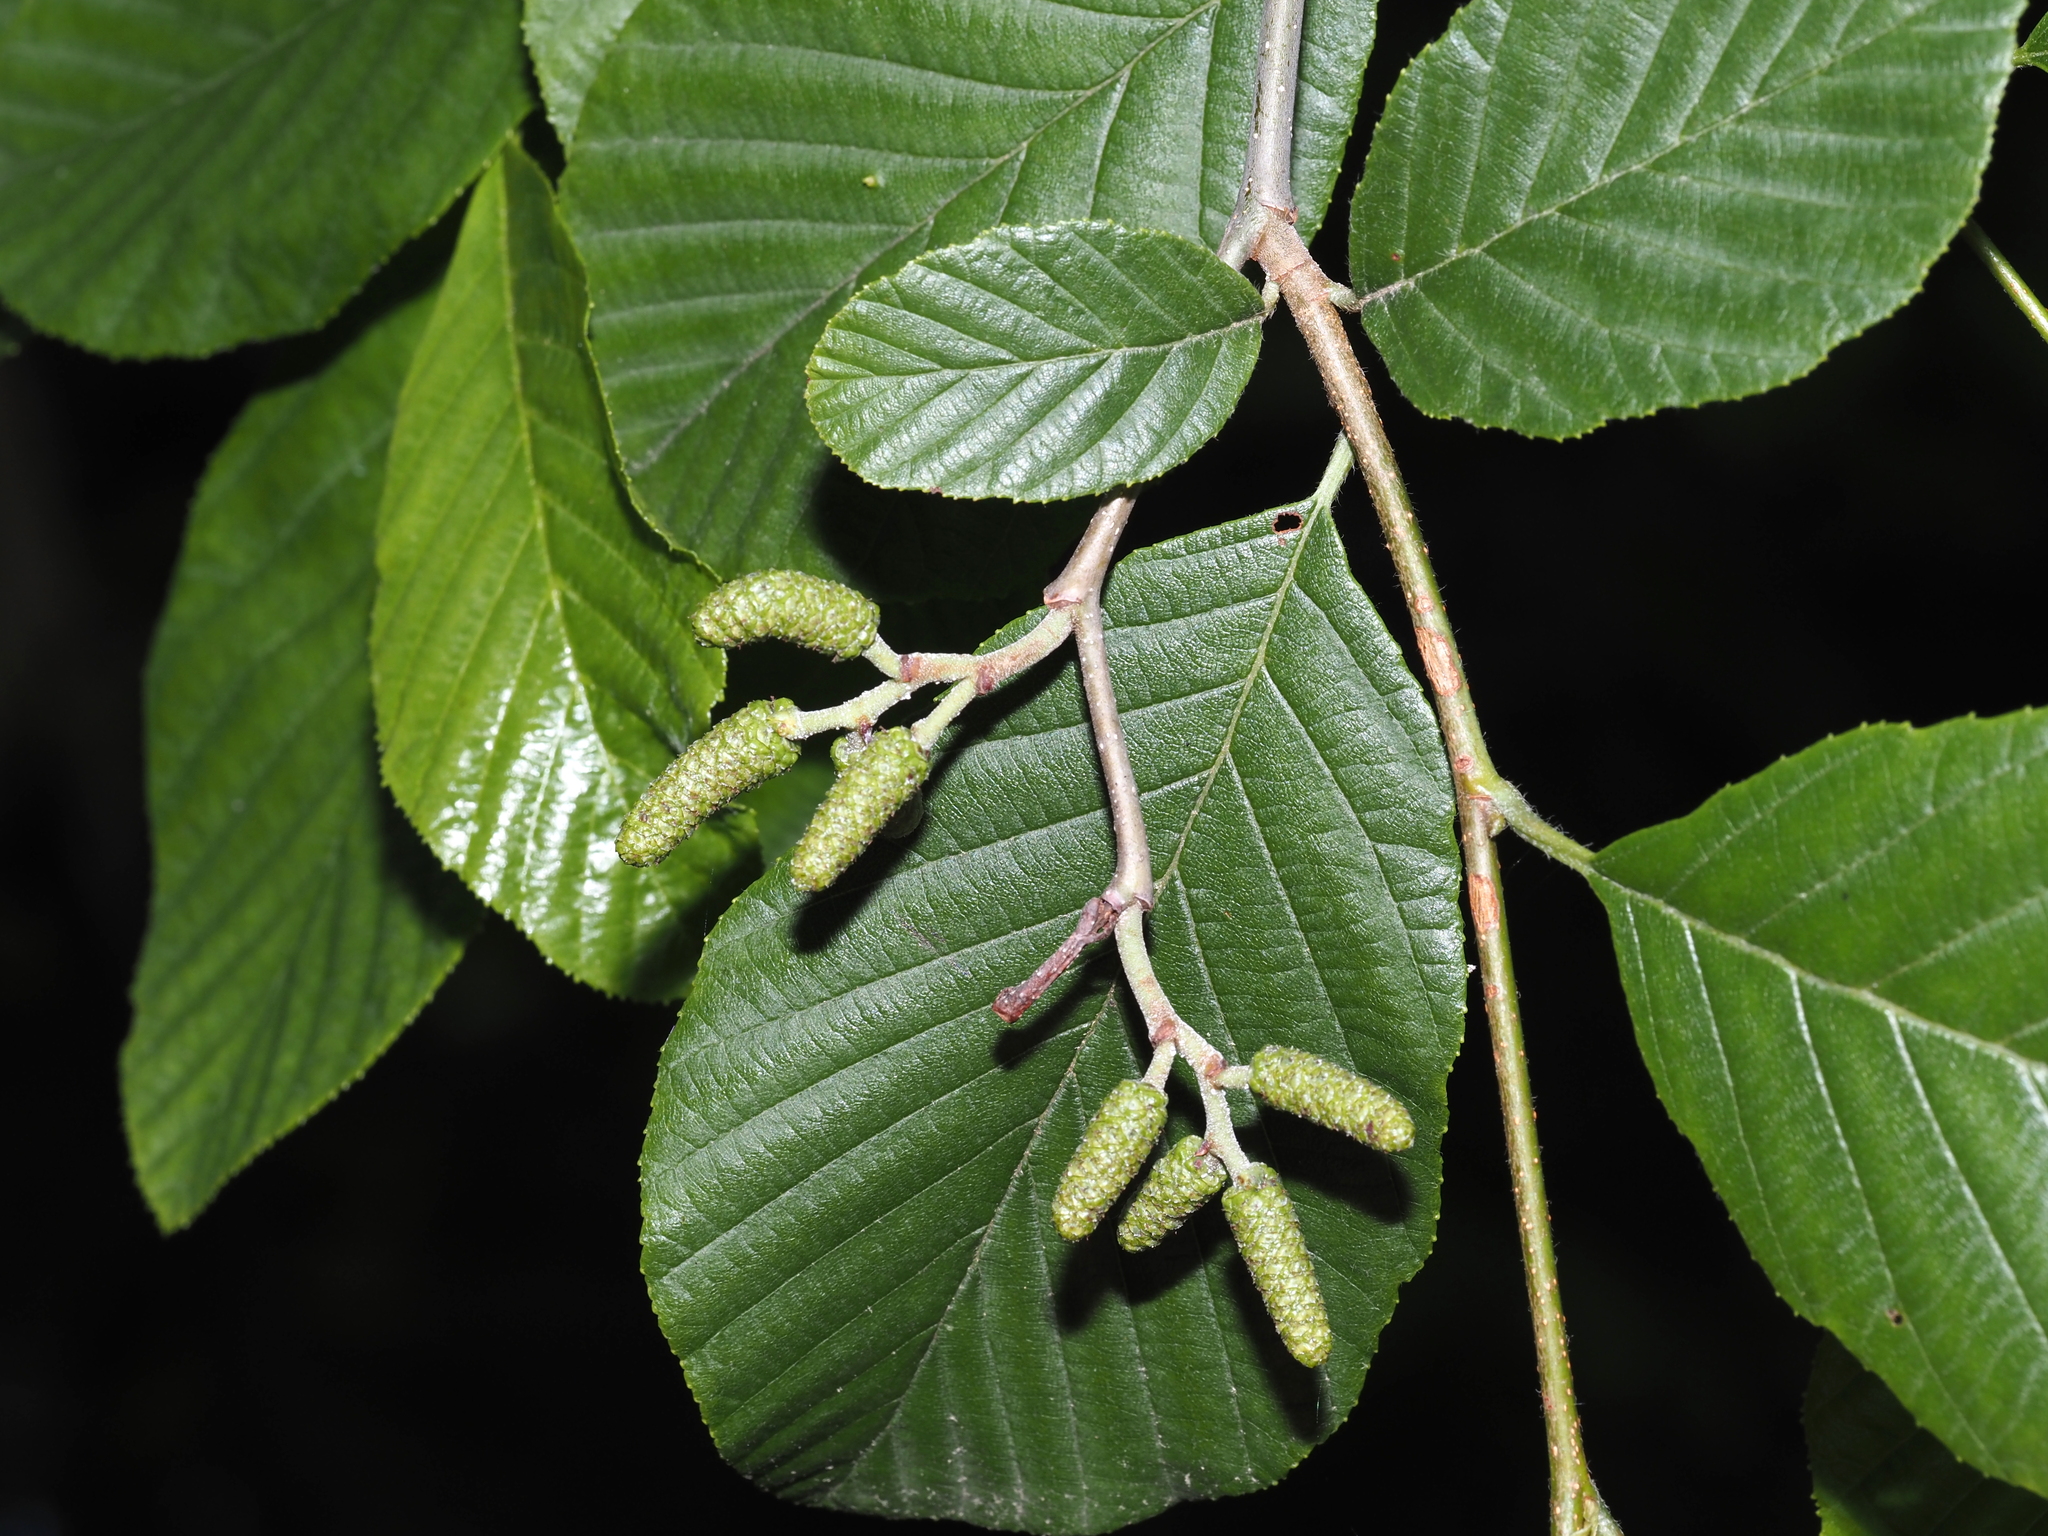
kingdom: Plantae
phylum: Tracheophyta
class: Magnoliopsida
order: Fagales
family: Betulaceae
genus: Alnus
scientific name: Alnus serrulata
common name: Hazel alder
